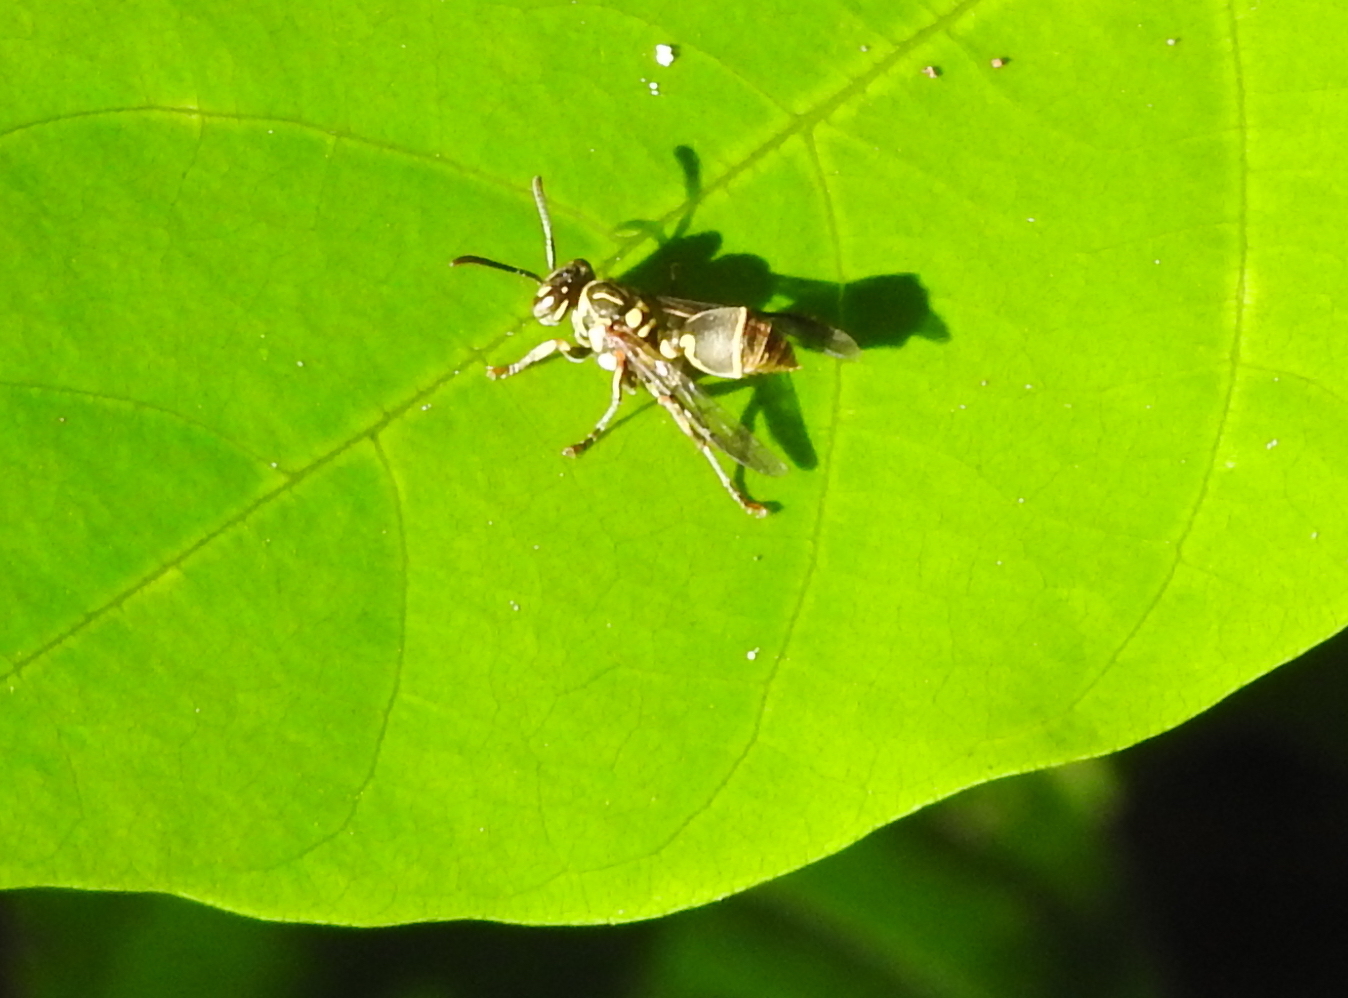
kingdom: Animalia
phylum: Arthropoda
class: Insecta
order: Hymenoptera
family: Vespidae
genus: Ropalidia
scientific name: Ropalidia flavopicta
